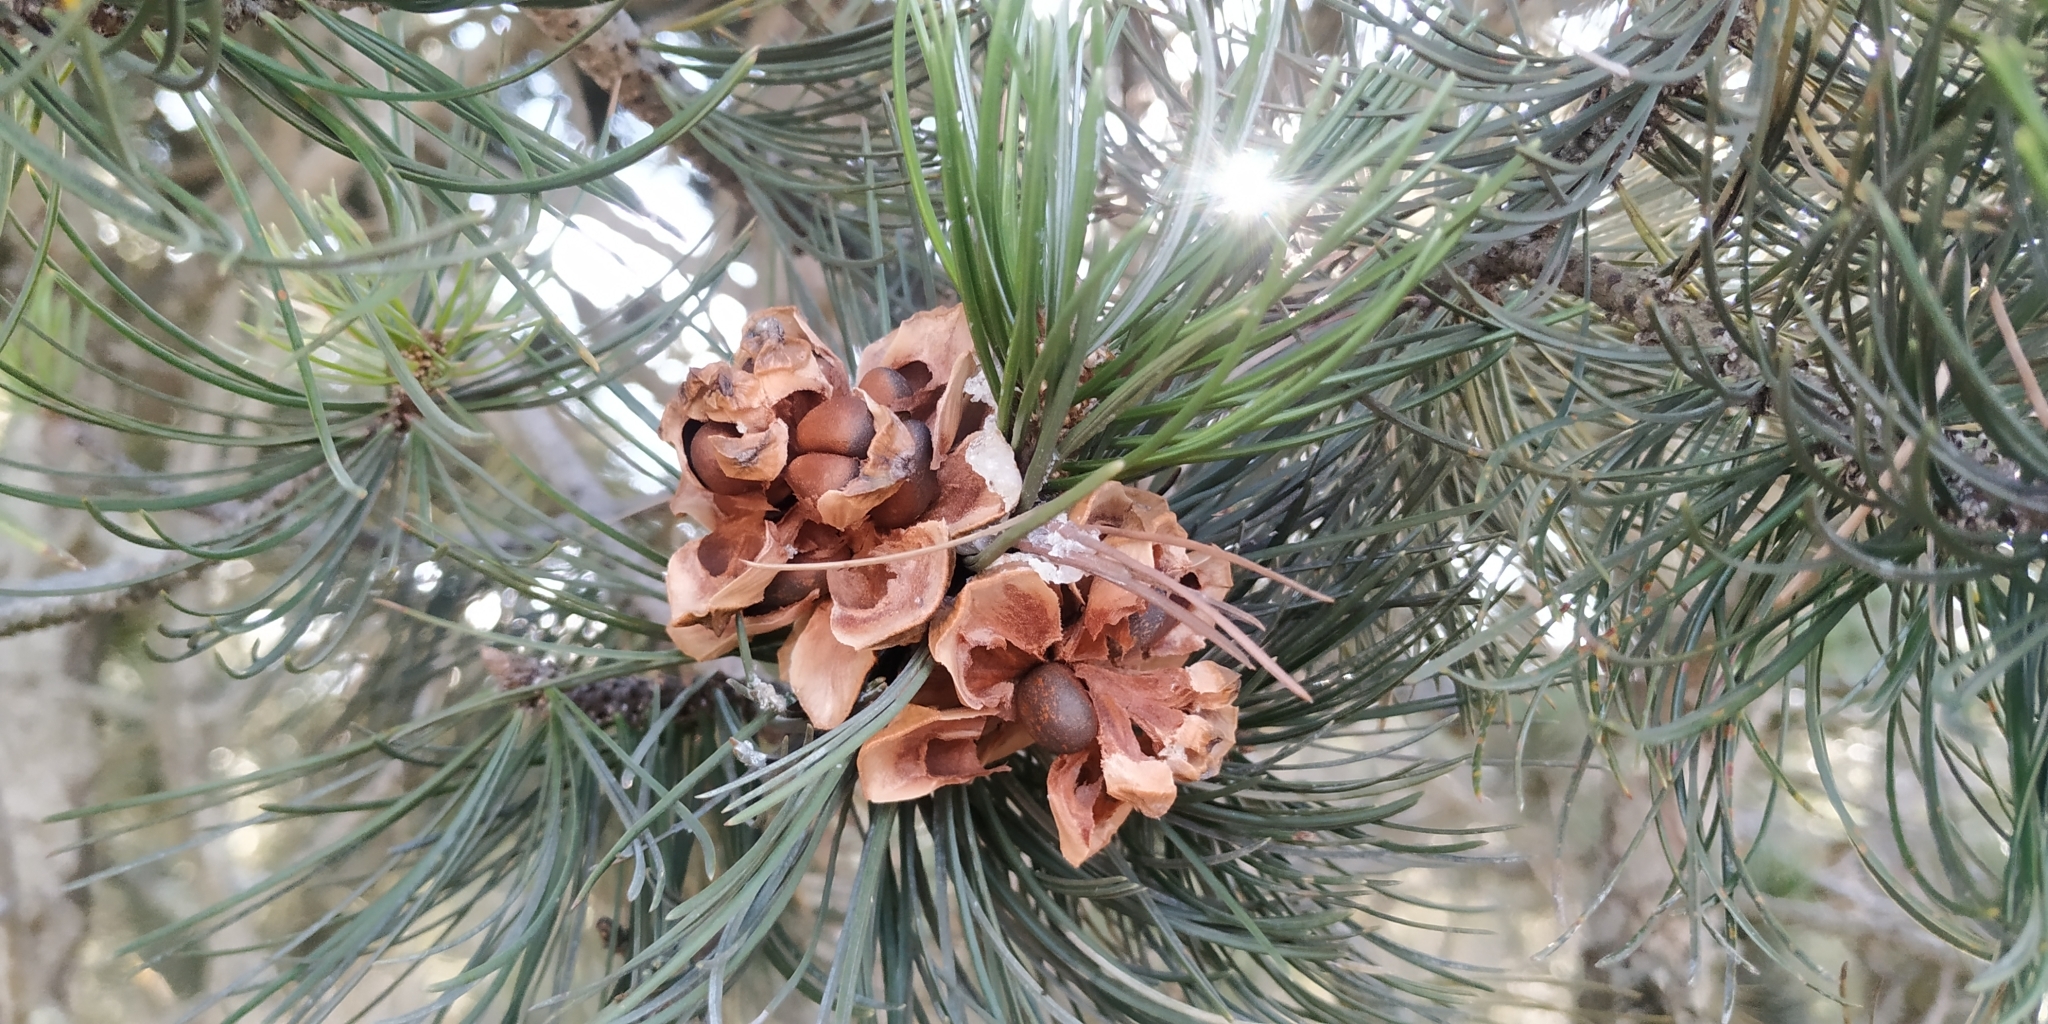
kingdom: Plantae
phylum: Tracheophyta
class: Pinopsida
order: Pinales
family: Pinaceae
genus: Pinus
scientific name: Pinus cembroides
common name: Mexican nut pine
